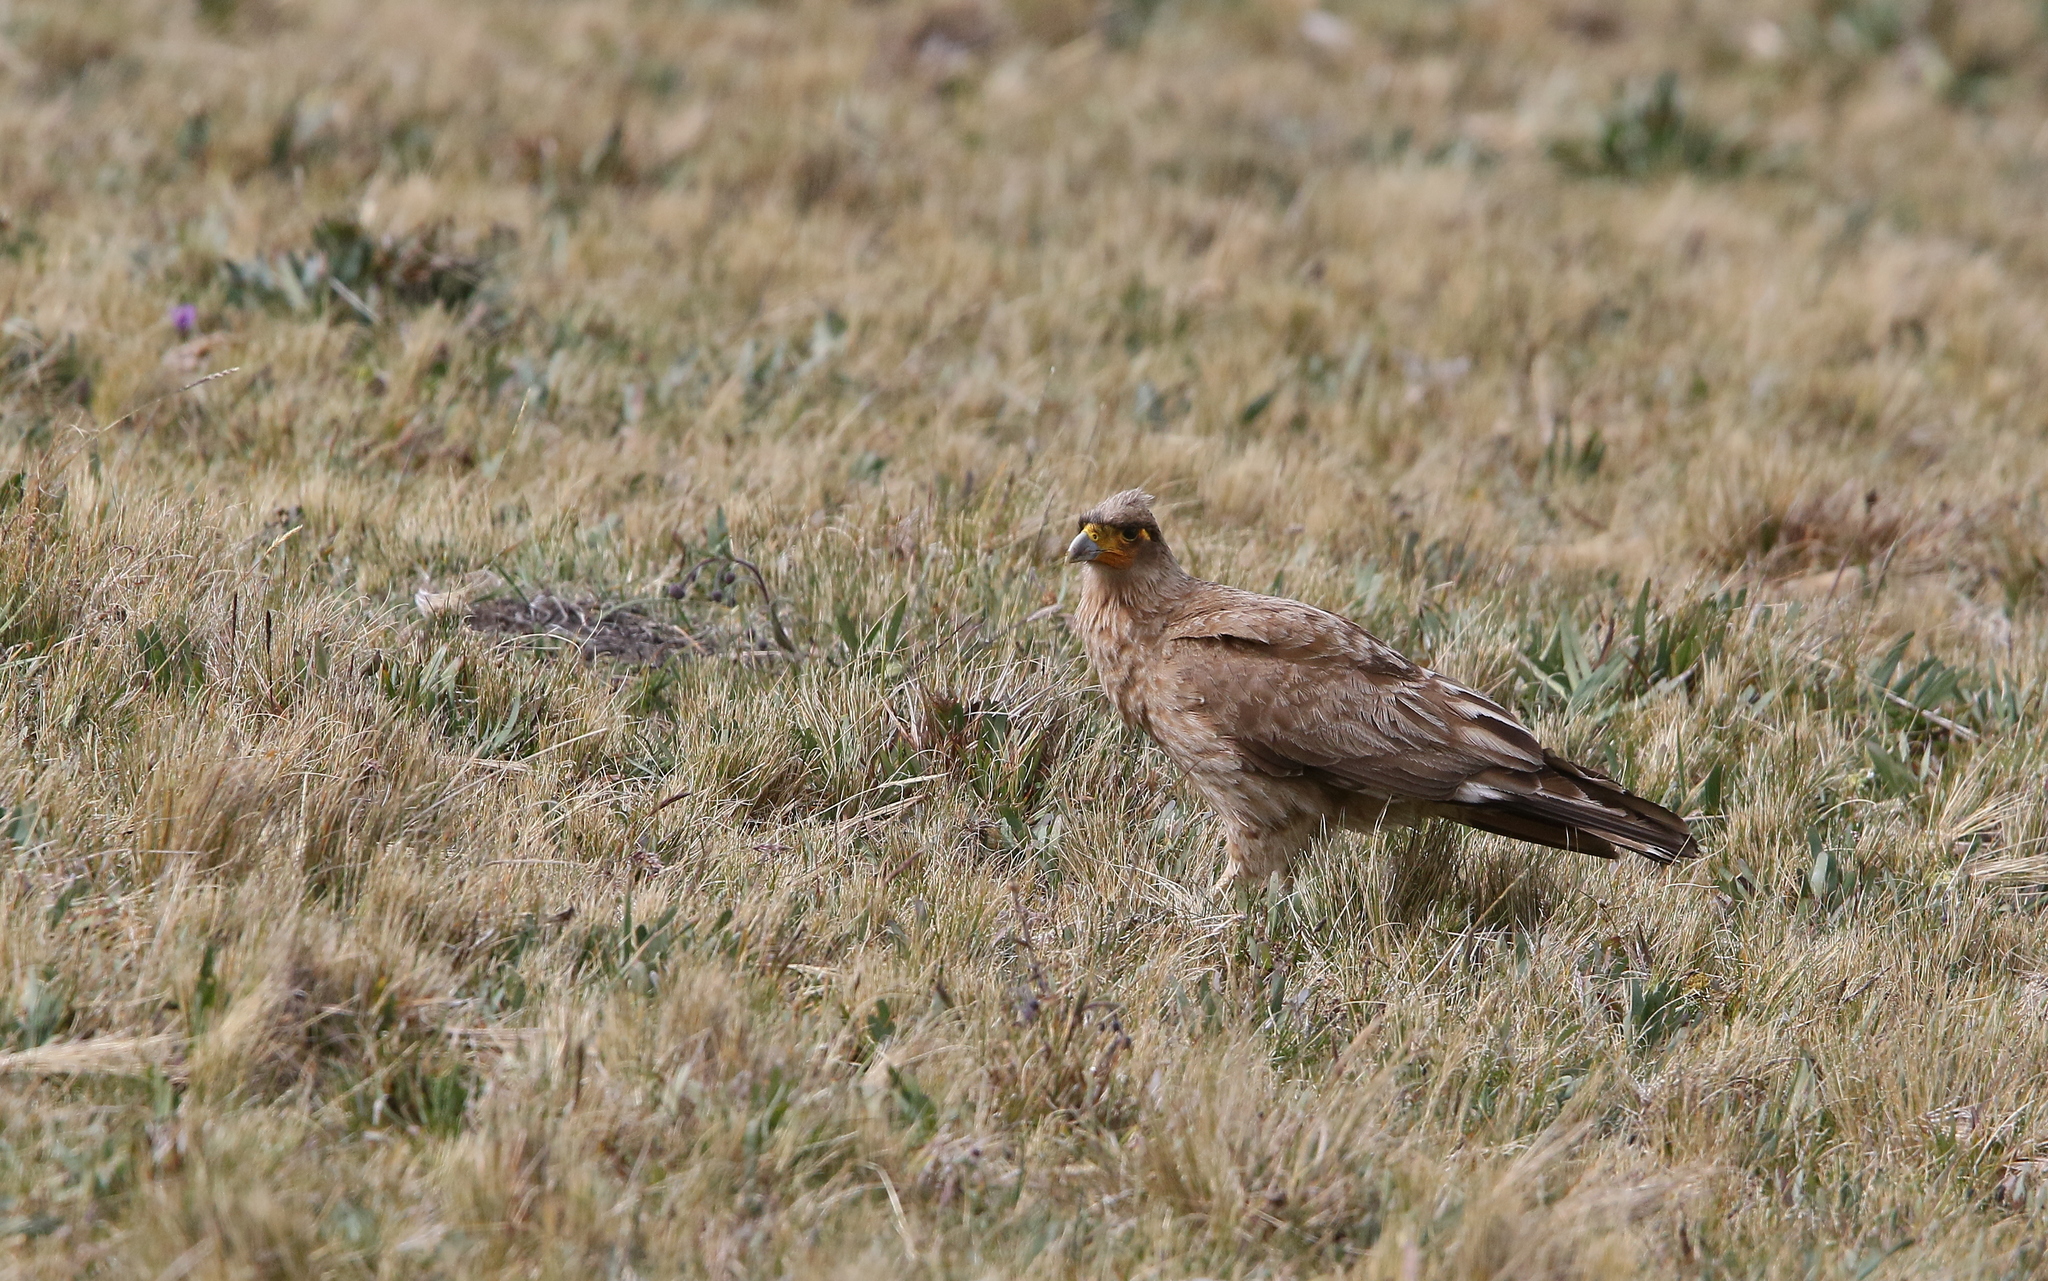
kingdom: Animalia
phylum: Chordata
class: Aves
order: Falconiformes
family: Falconidae
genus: Daptrius
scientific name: Daptrius
